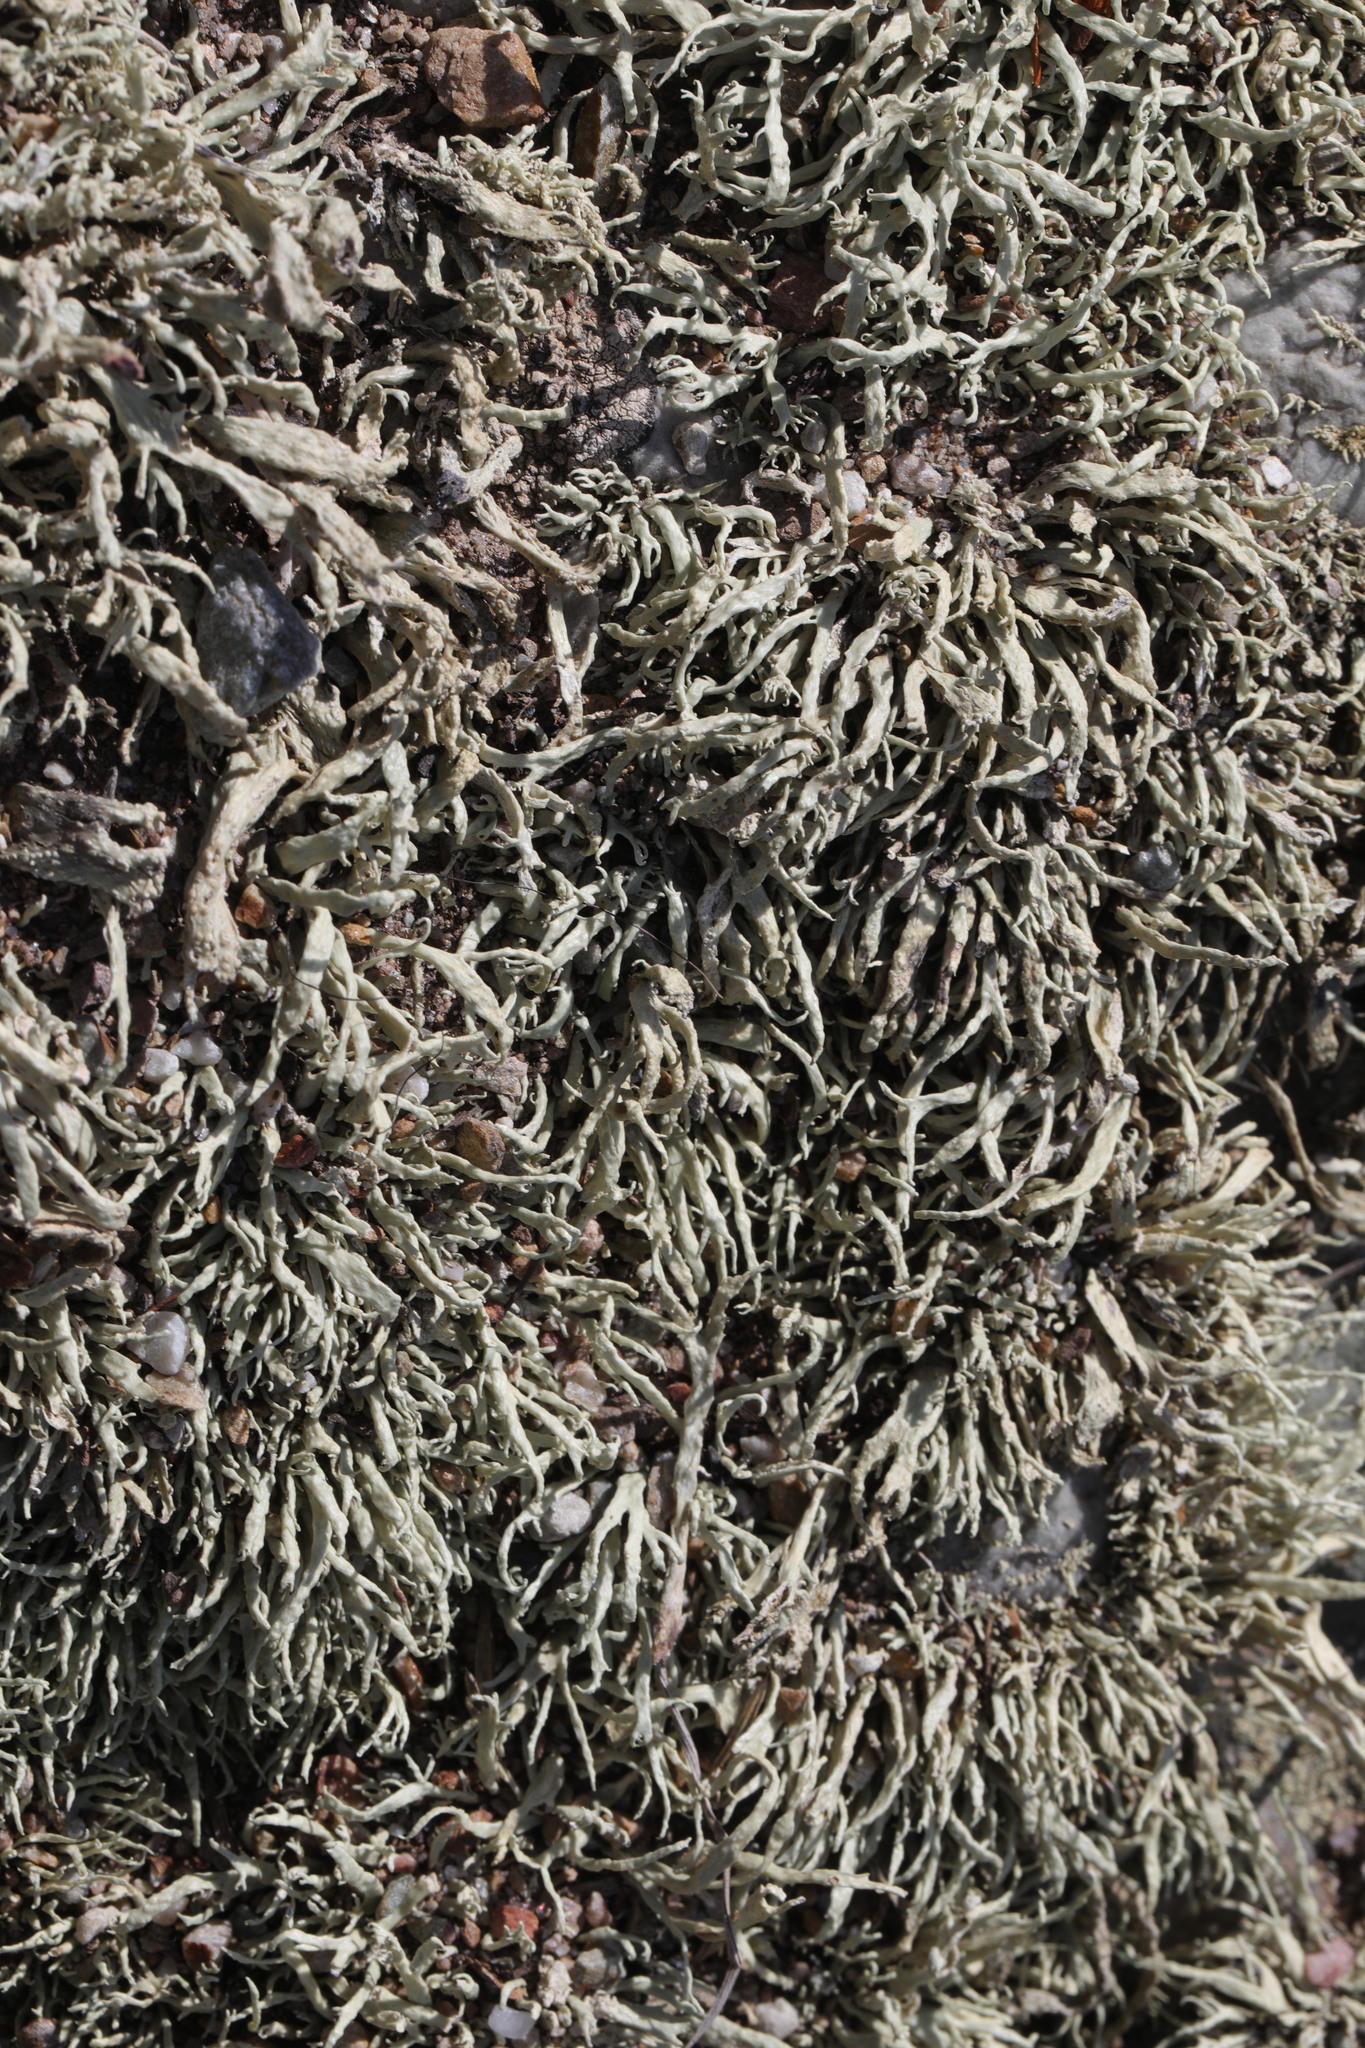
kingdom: Fungi
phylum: Ascomycota
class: Lecanoromycetes
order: Lecanorales
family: Ramalinaceae
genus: Ramalina
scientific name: Ramalina siliquosa
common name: Sea ivory
